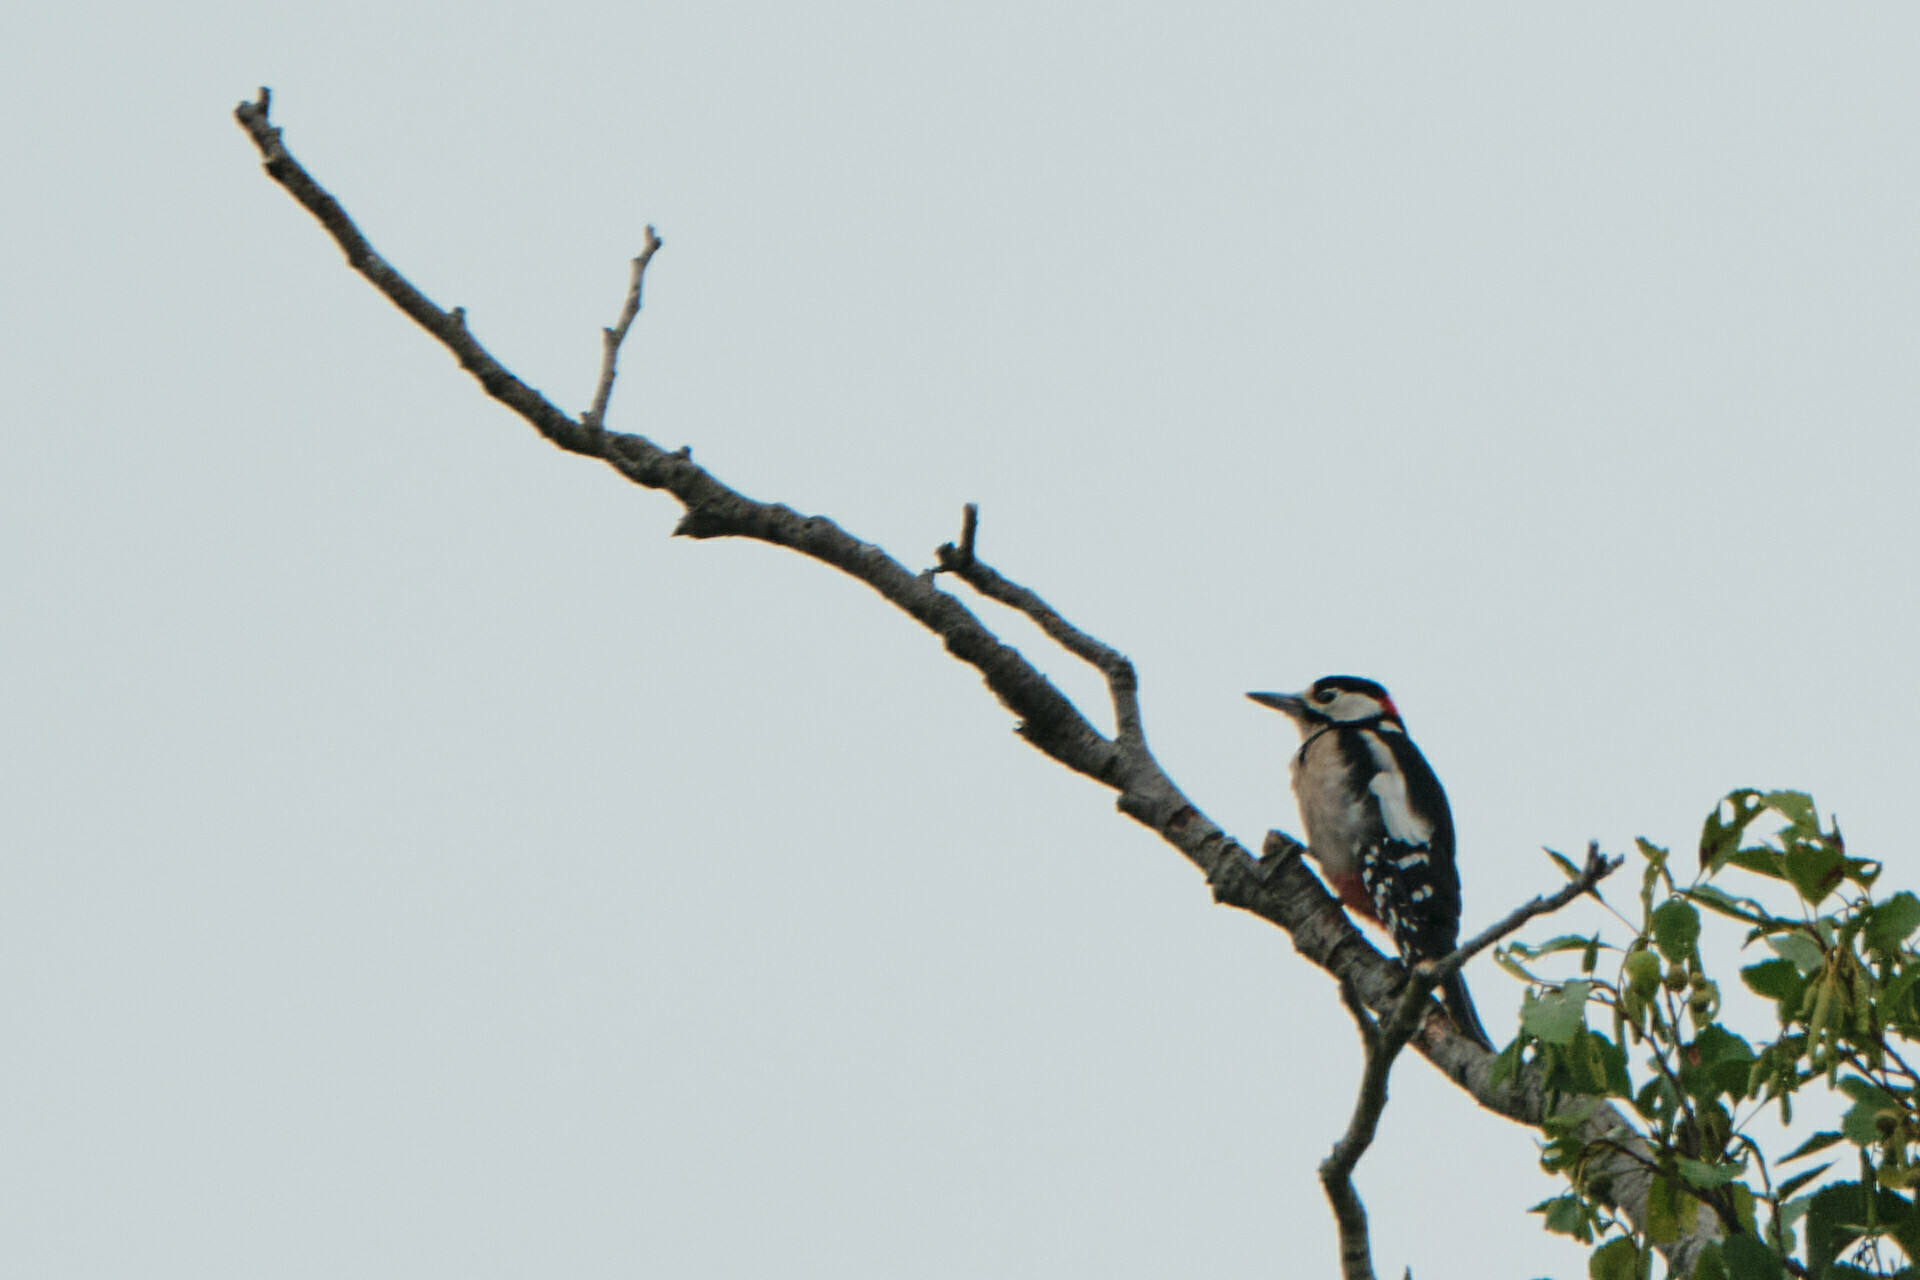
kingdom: Animalia
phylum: Chordata
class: Aves
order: Piciformes
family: Picidae
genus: Dendrocopos
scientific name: Dendrocopos major
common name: Great spotted woodpecker
